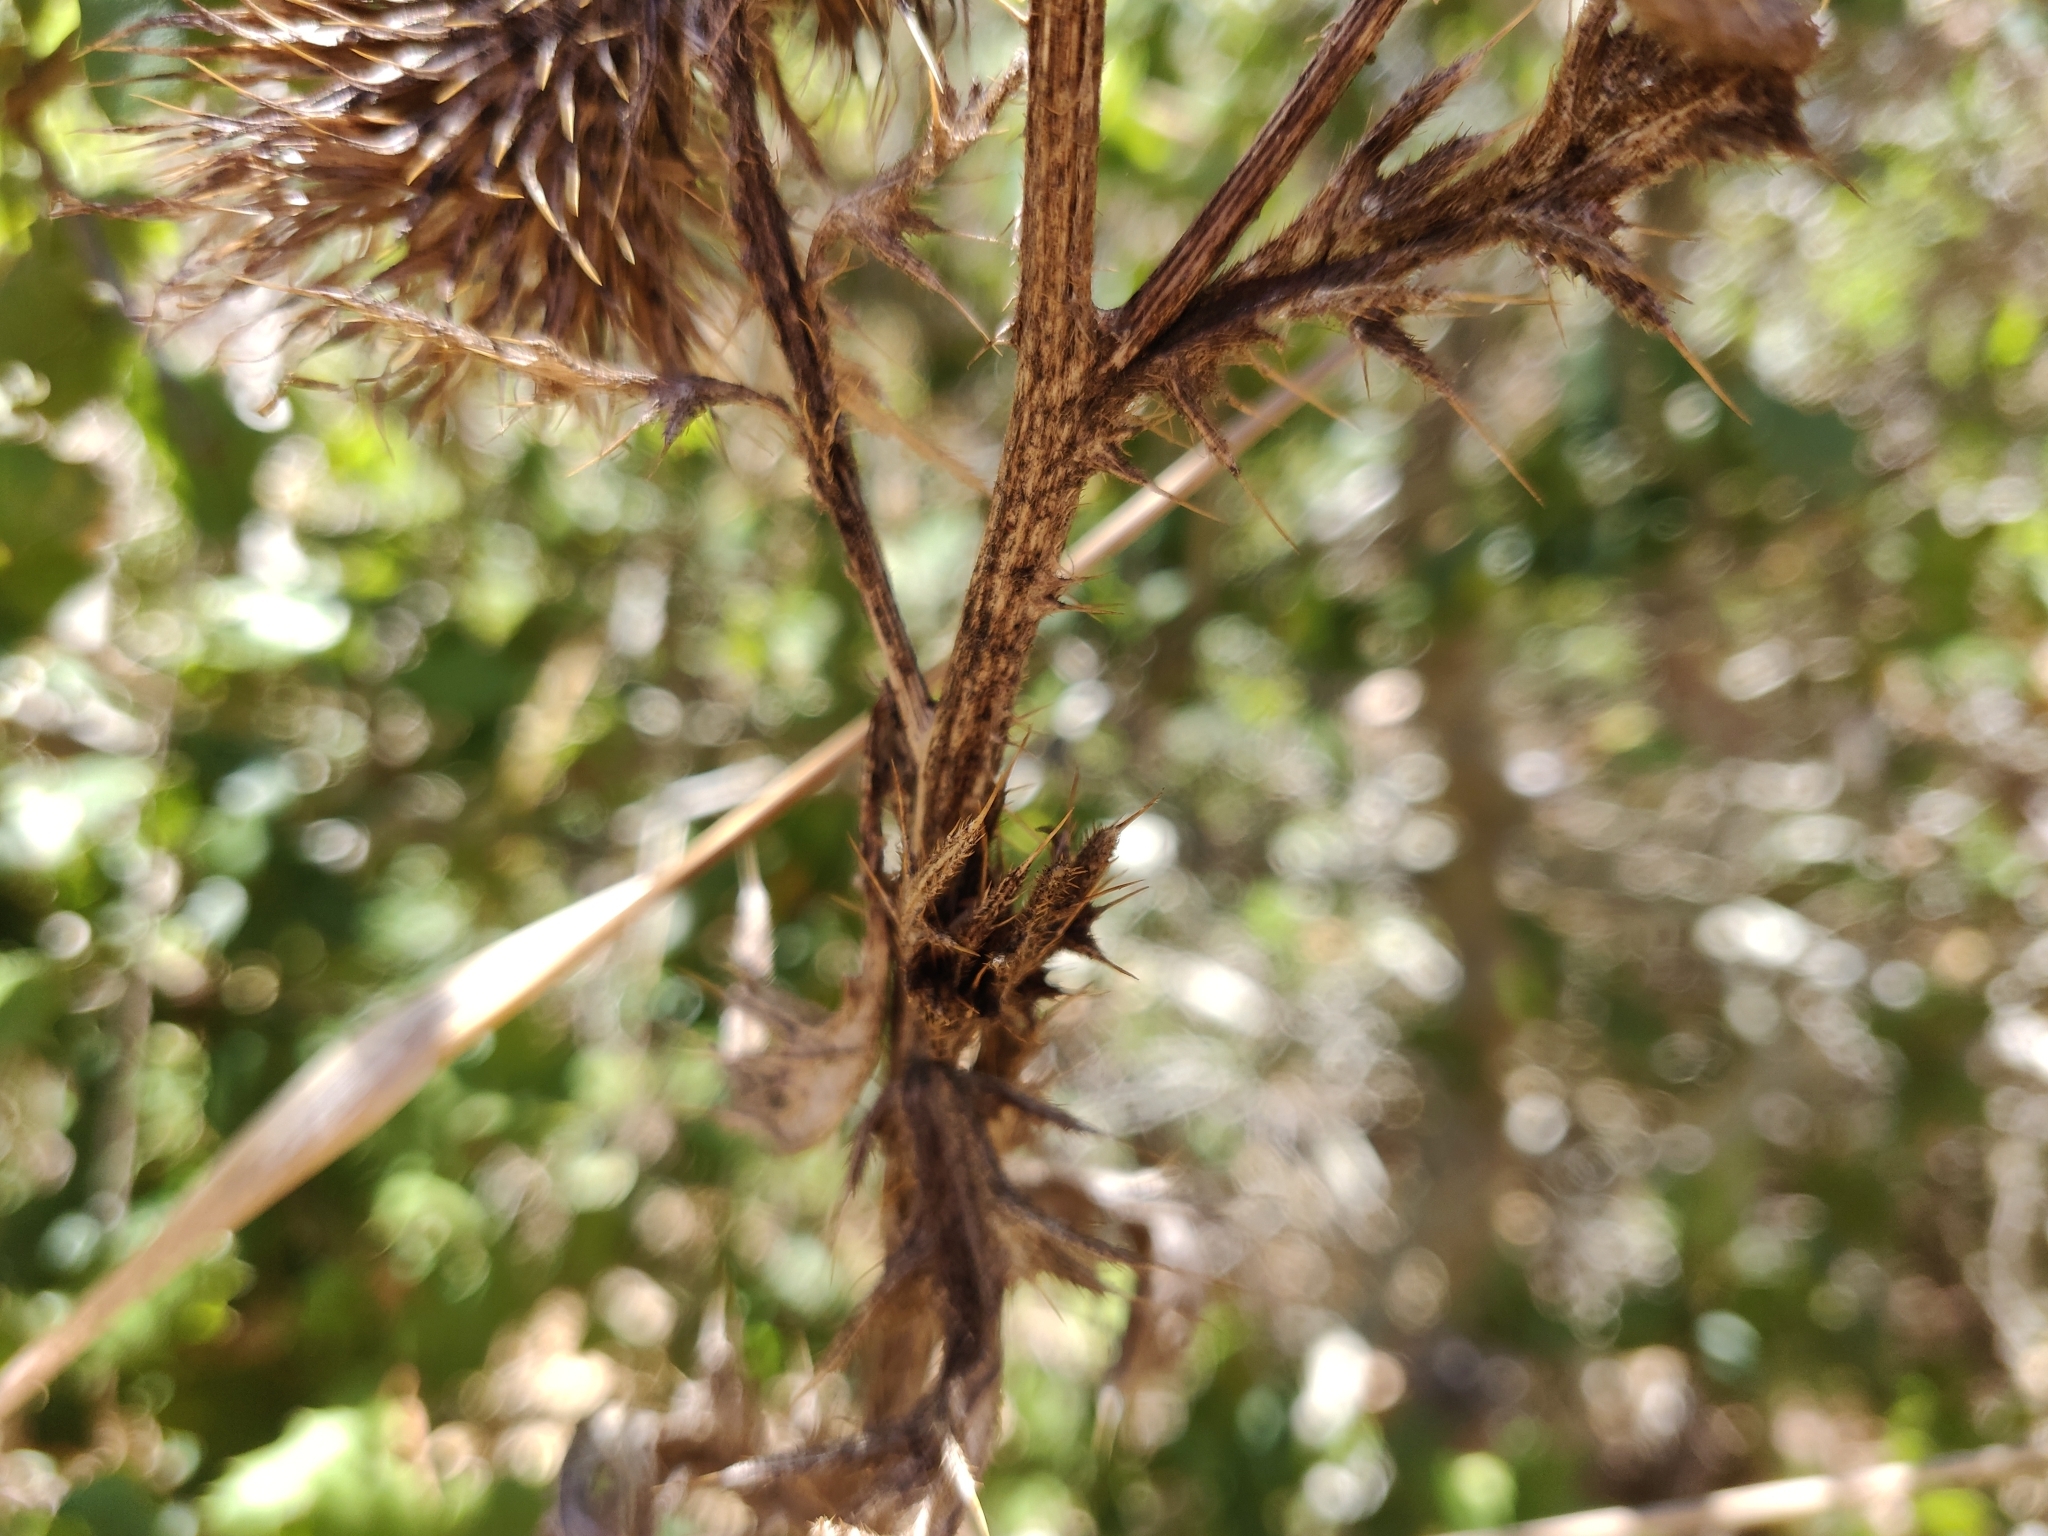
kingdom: Plantae
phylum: Tracheophyta
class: Magnoliopsida
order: Asterales
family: Asteraceae
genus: Cirsium
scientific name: Cirsium vulgare
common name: Bull thistle
